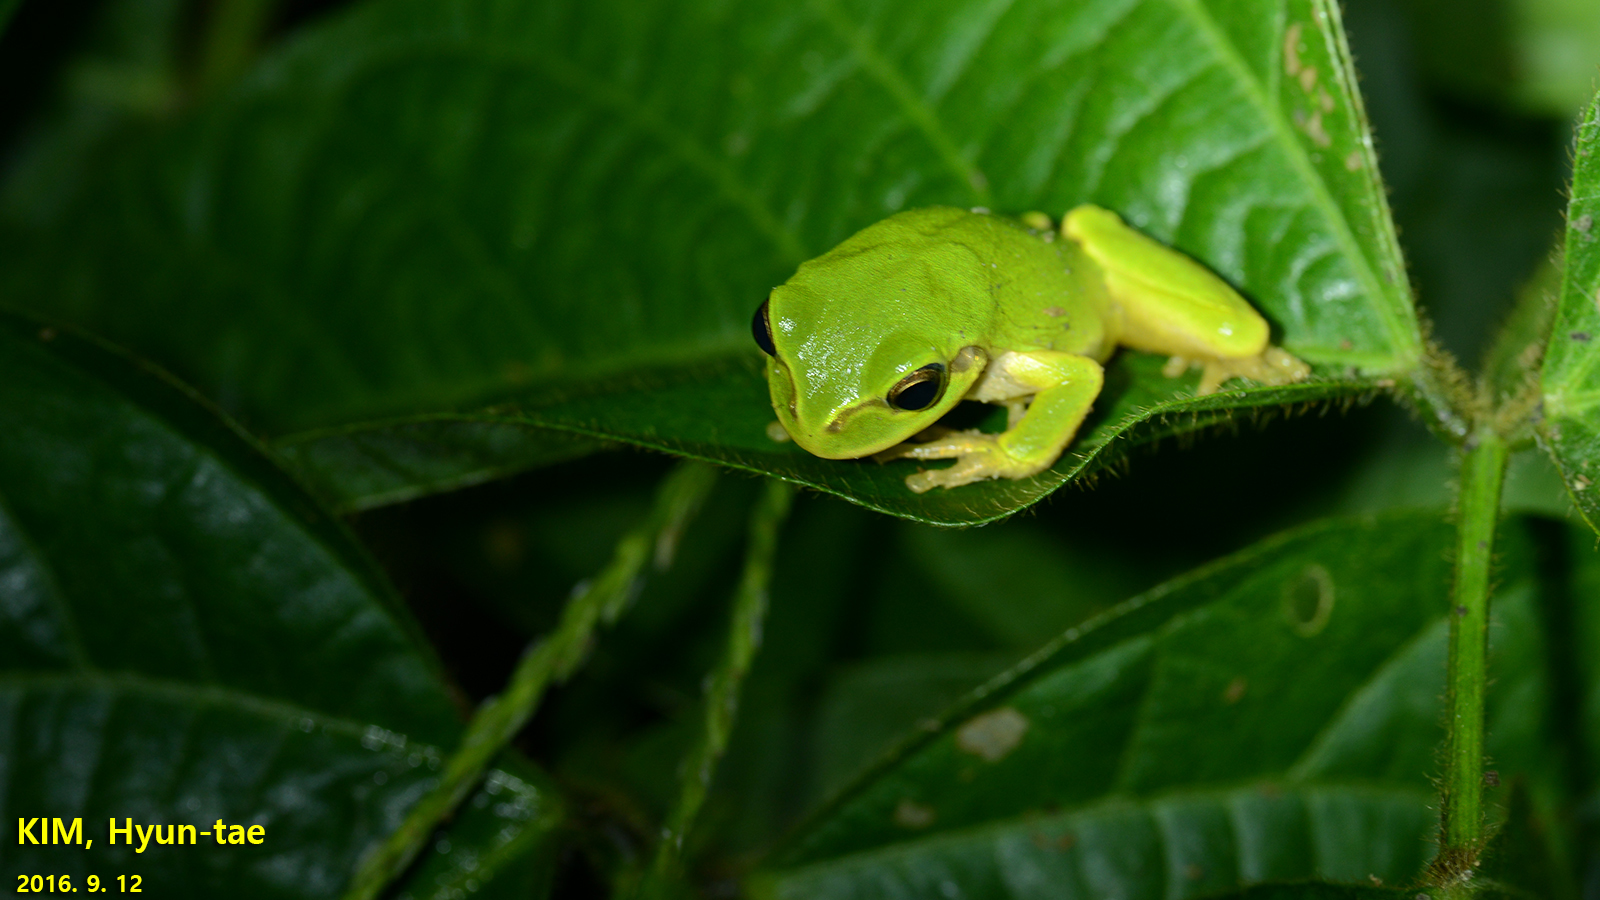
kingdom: Animalia
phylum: Chordata
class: Amphibia
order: Anura
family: Hylidae
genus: Dryophytes
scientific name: Dryophytes japonicus
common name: Japanese treefrog
